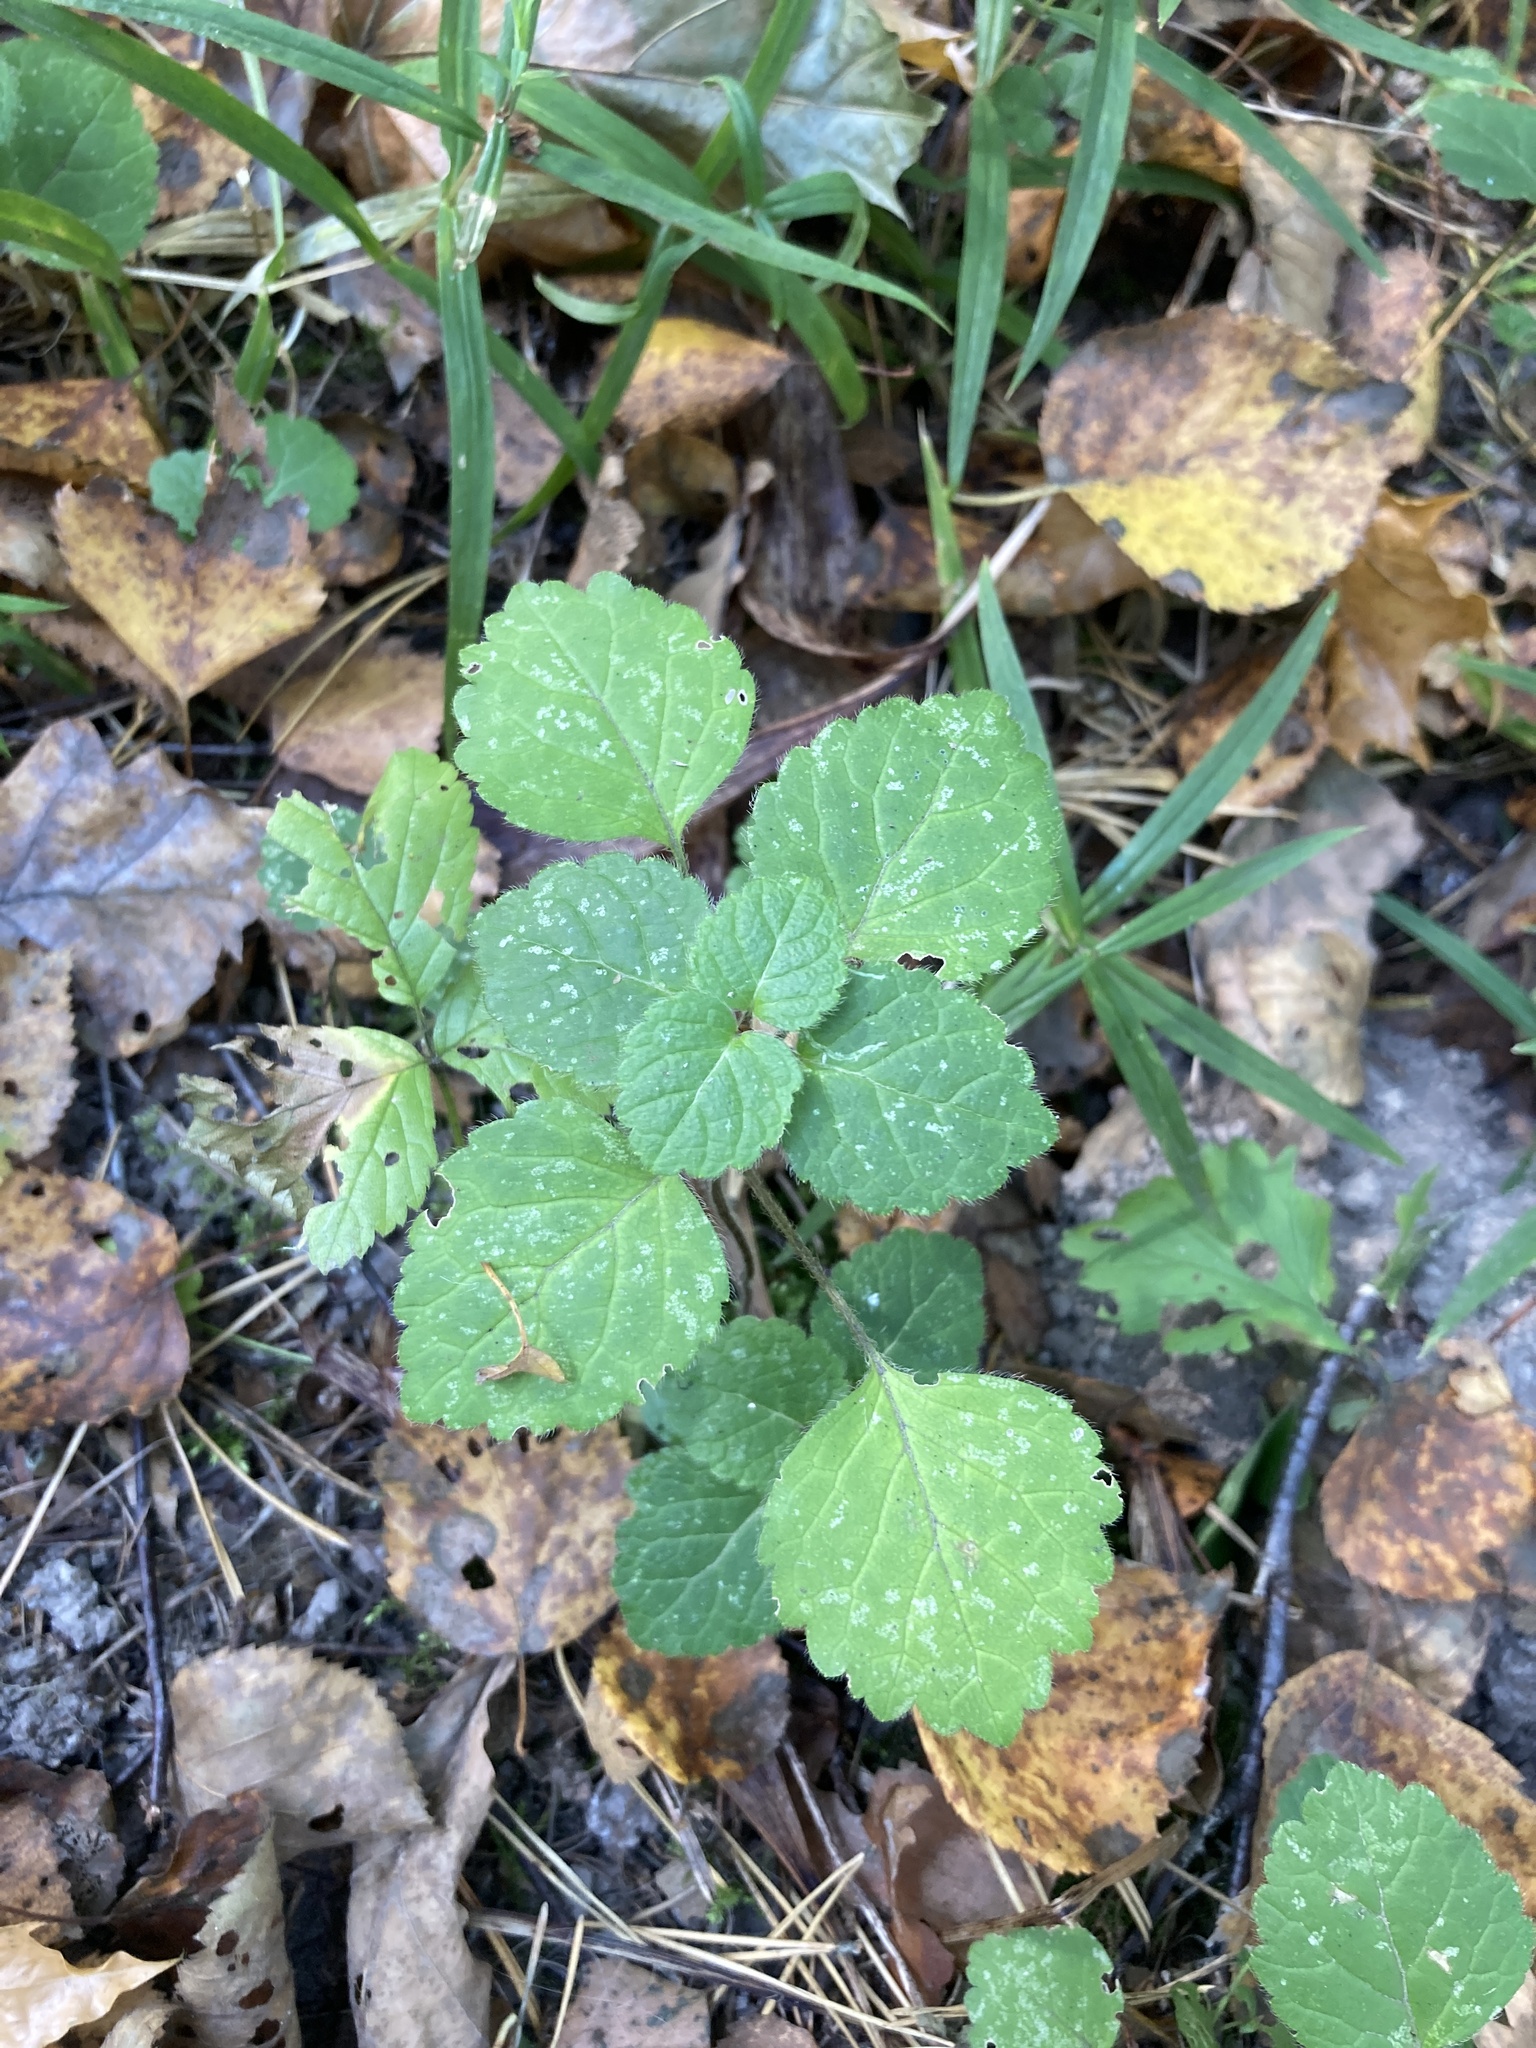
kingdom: Plantae
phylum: Tracheophyta
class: Magnoliopsida
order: Lamiales
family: Lamiaceae
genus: Lamium
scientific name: Lamium galeobdolon
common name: Yellow archangel
